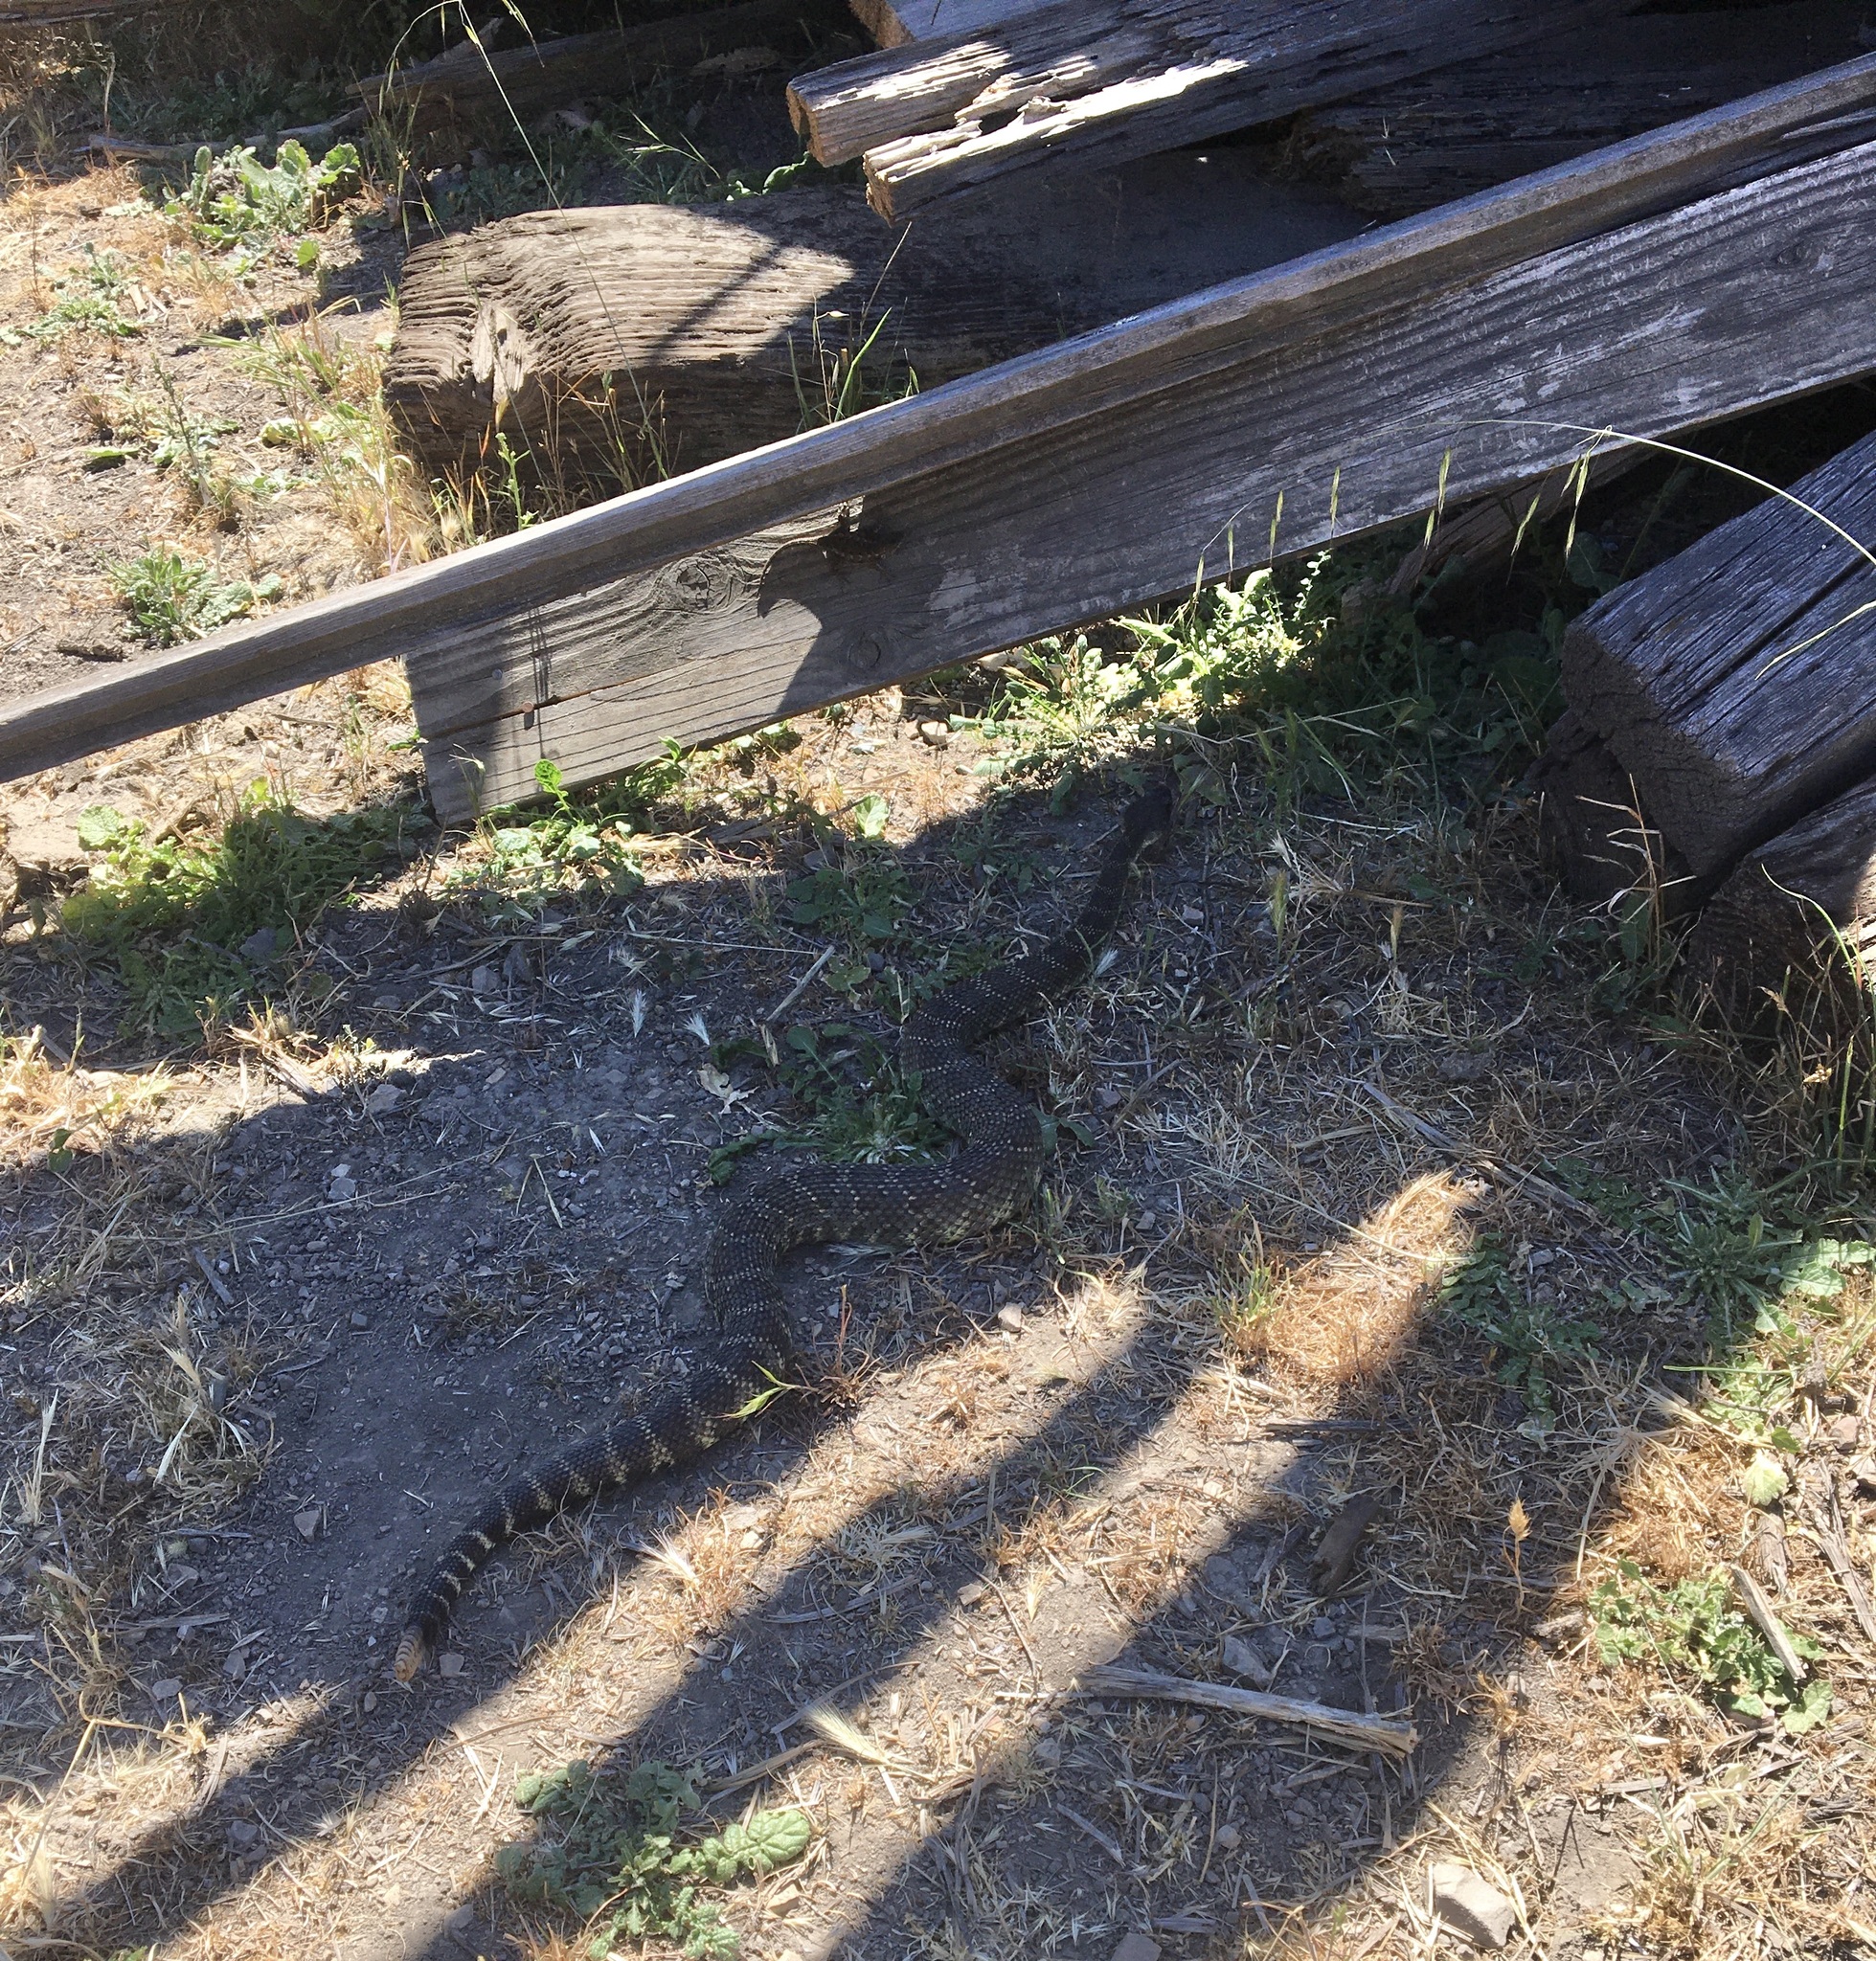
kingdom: Animalia
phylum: Chordata
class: Squamata
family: Viperidae
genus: Crotalus
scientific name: Crotalus oreganus
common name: Abyssus
